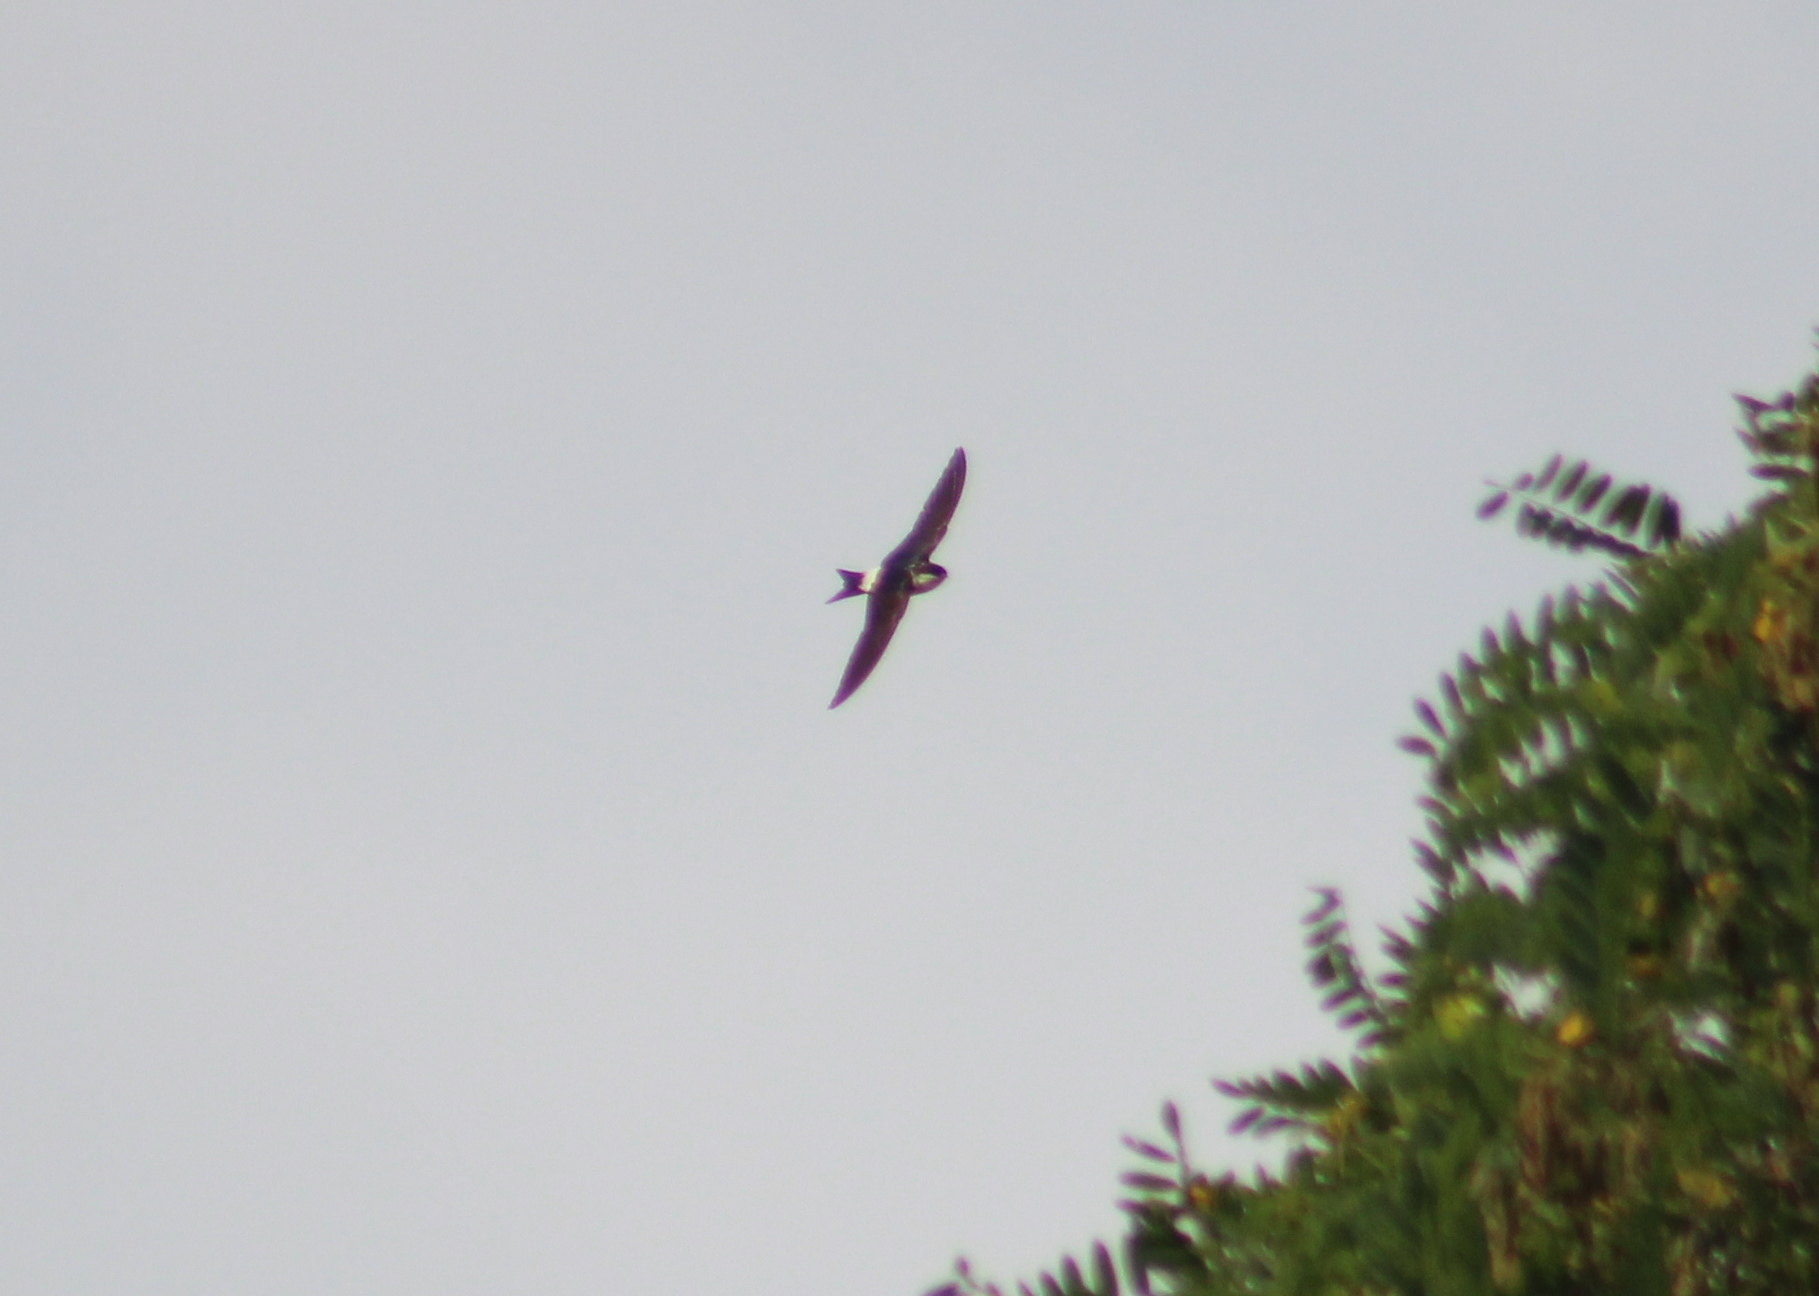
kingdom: Animalia
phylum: Chordata
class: Aves
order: Passeriformes
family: Hirundinidae
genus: Delichon
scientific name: Delichon urbicum
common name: Common house martin
